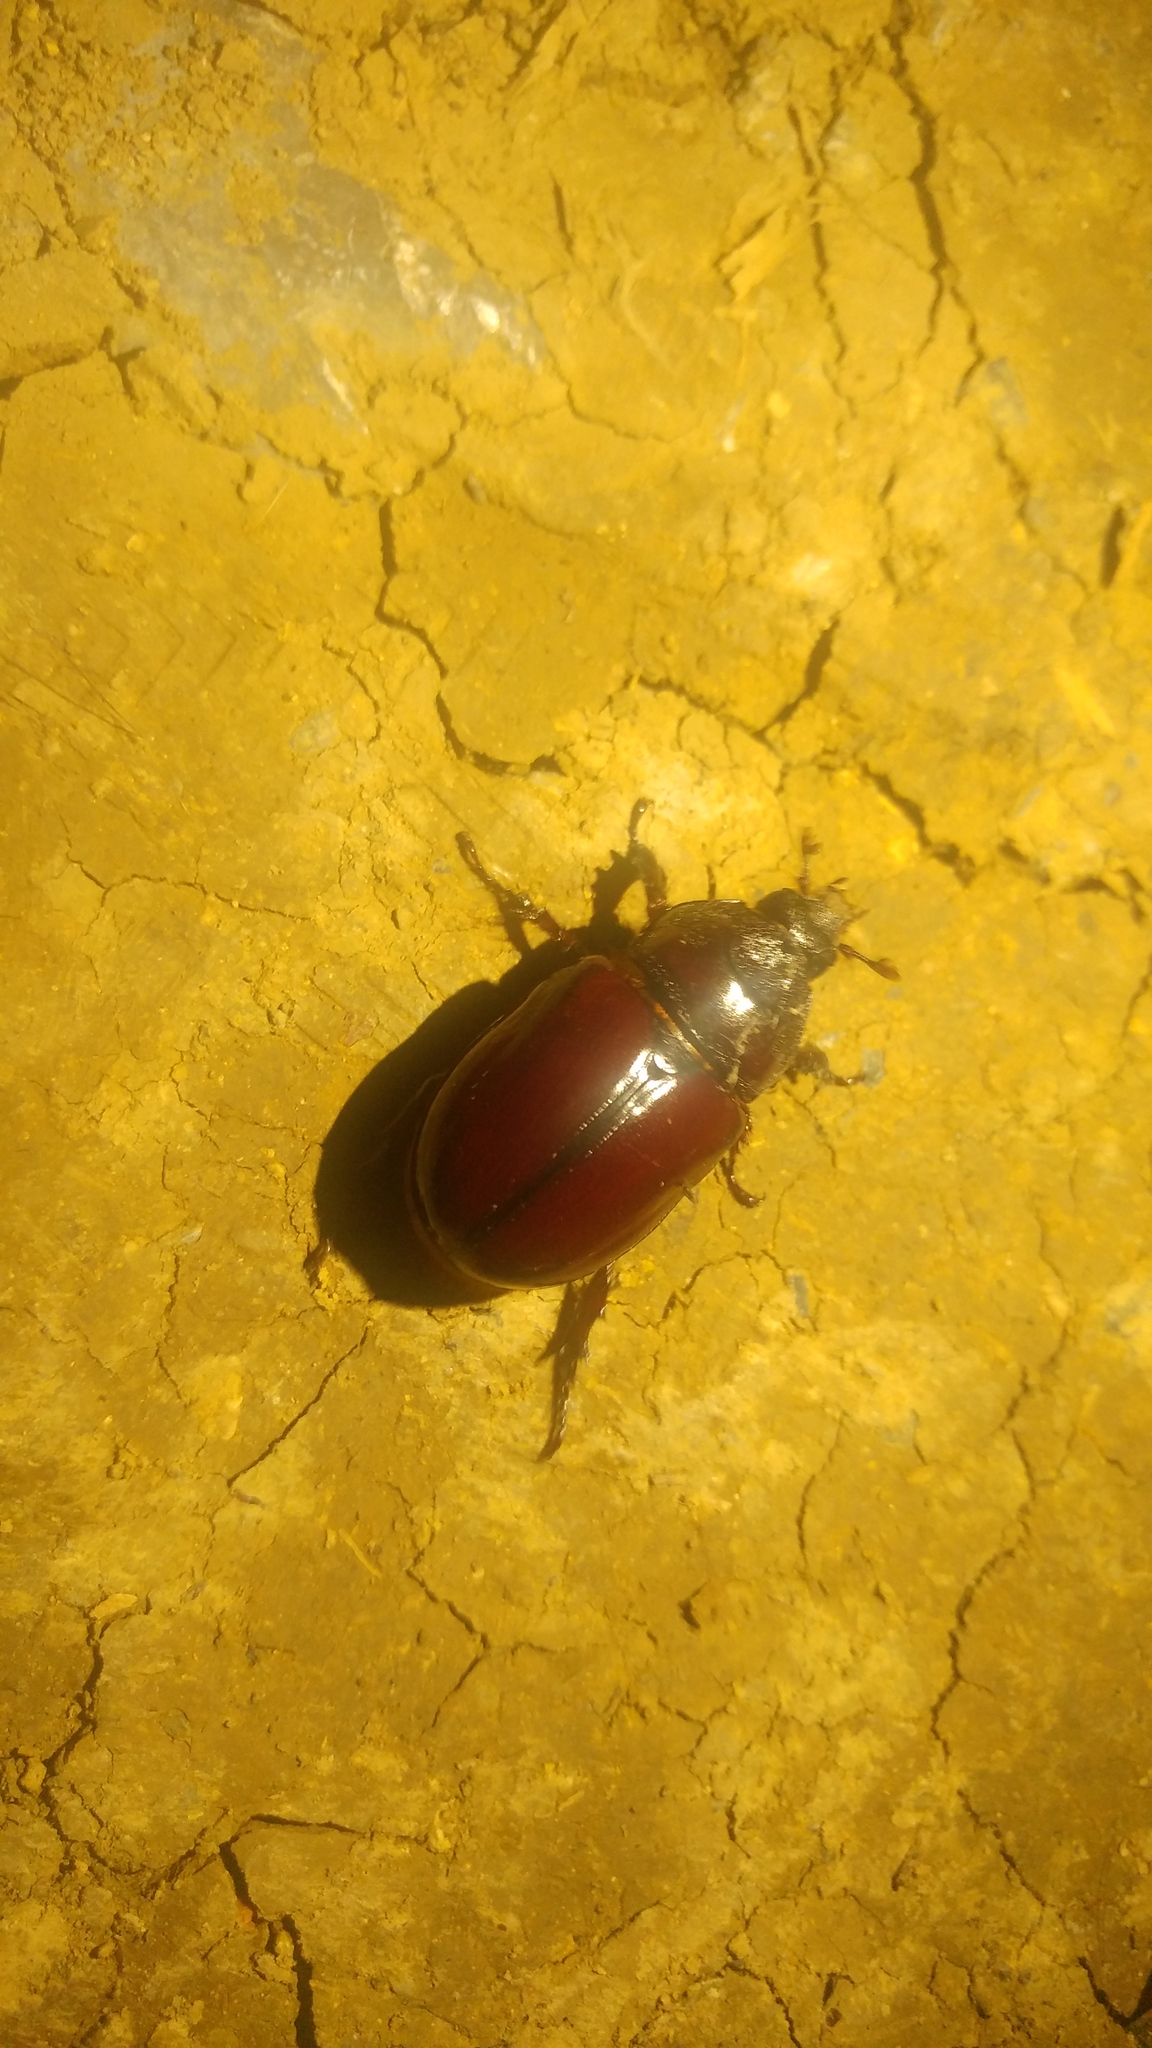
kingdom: Animalia
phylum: Arthropoda
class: Insecta
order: Coleoptera
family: Scarabaeidae
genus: Strategus
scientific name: Strategus aloeus
